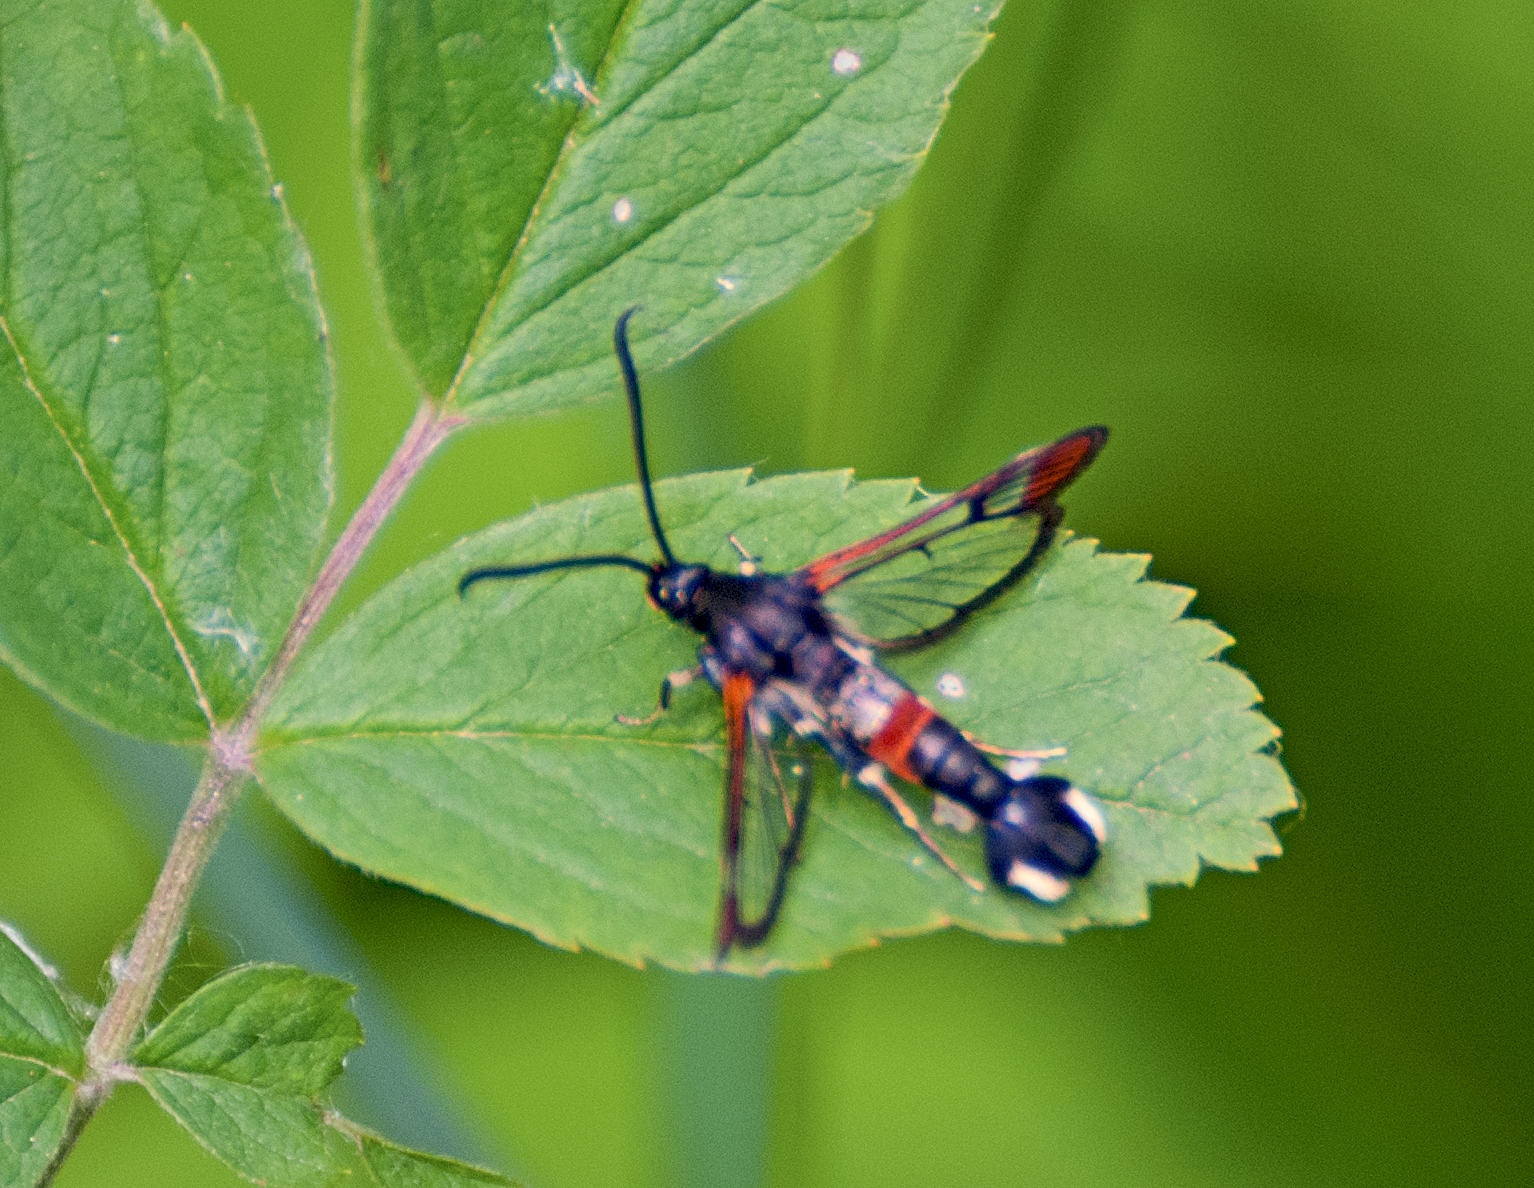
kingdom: Animalia
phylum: Arthropoda
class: Insecta
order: Lepidoptera
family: Sesiidae
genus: Synanthedon
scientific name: Synanthedon formicaeformis
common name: Red-tipped clearwing
